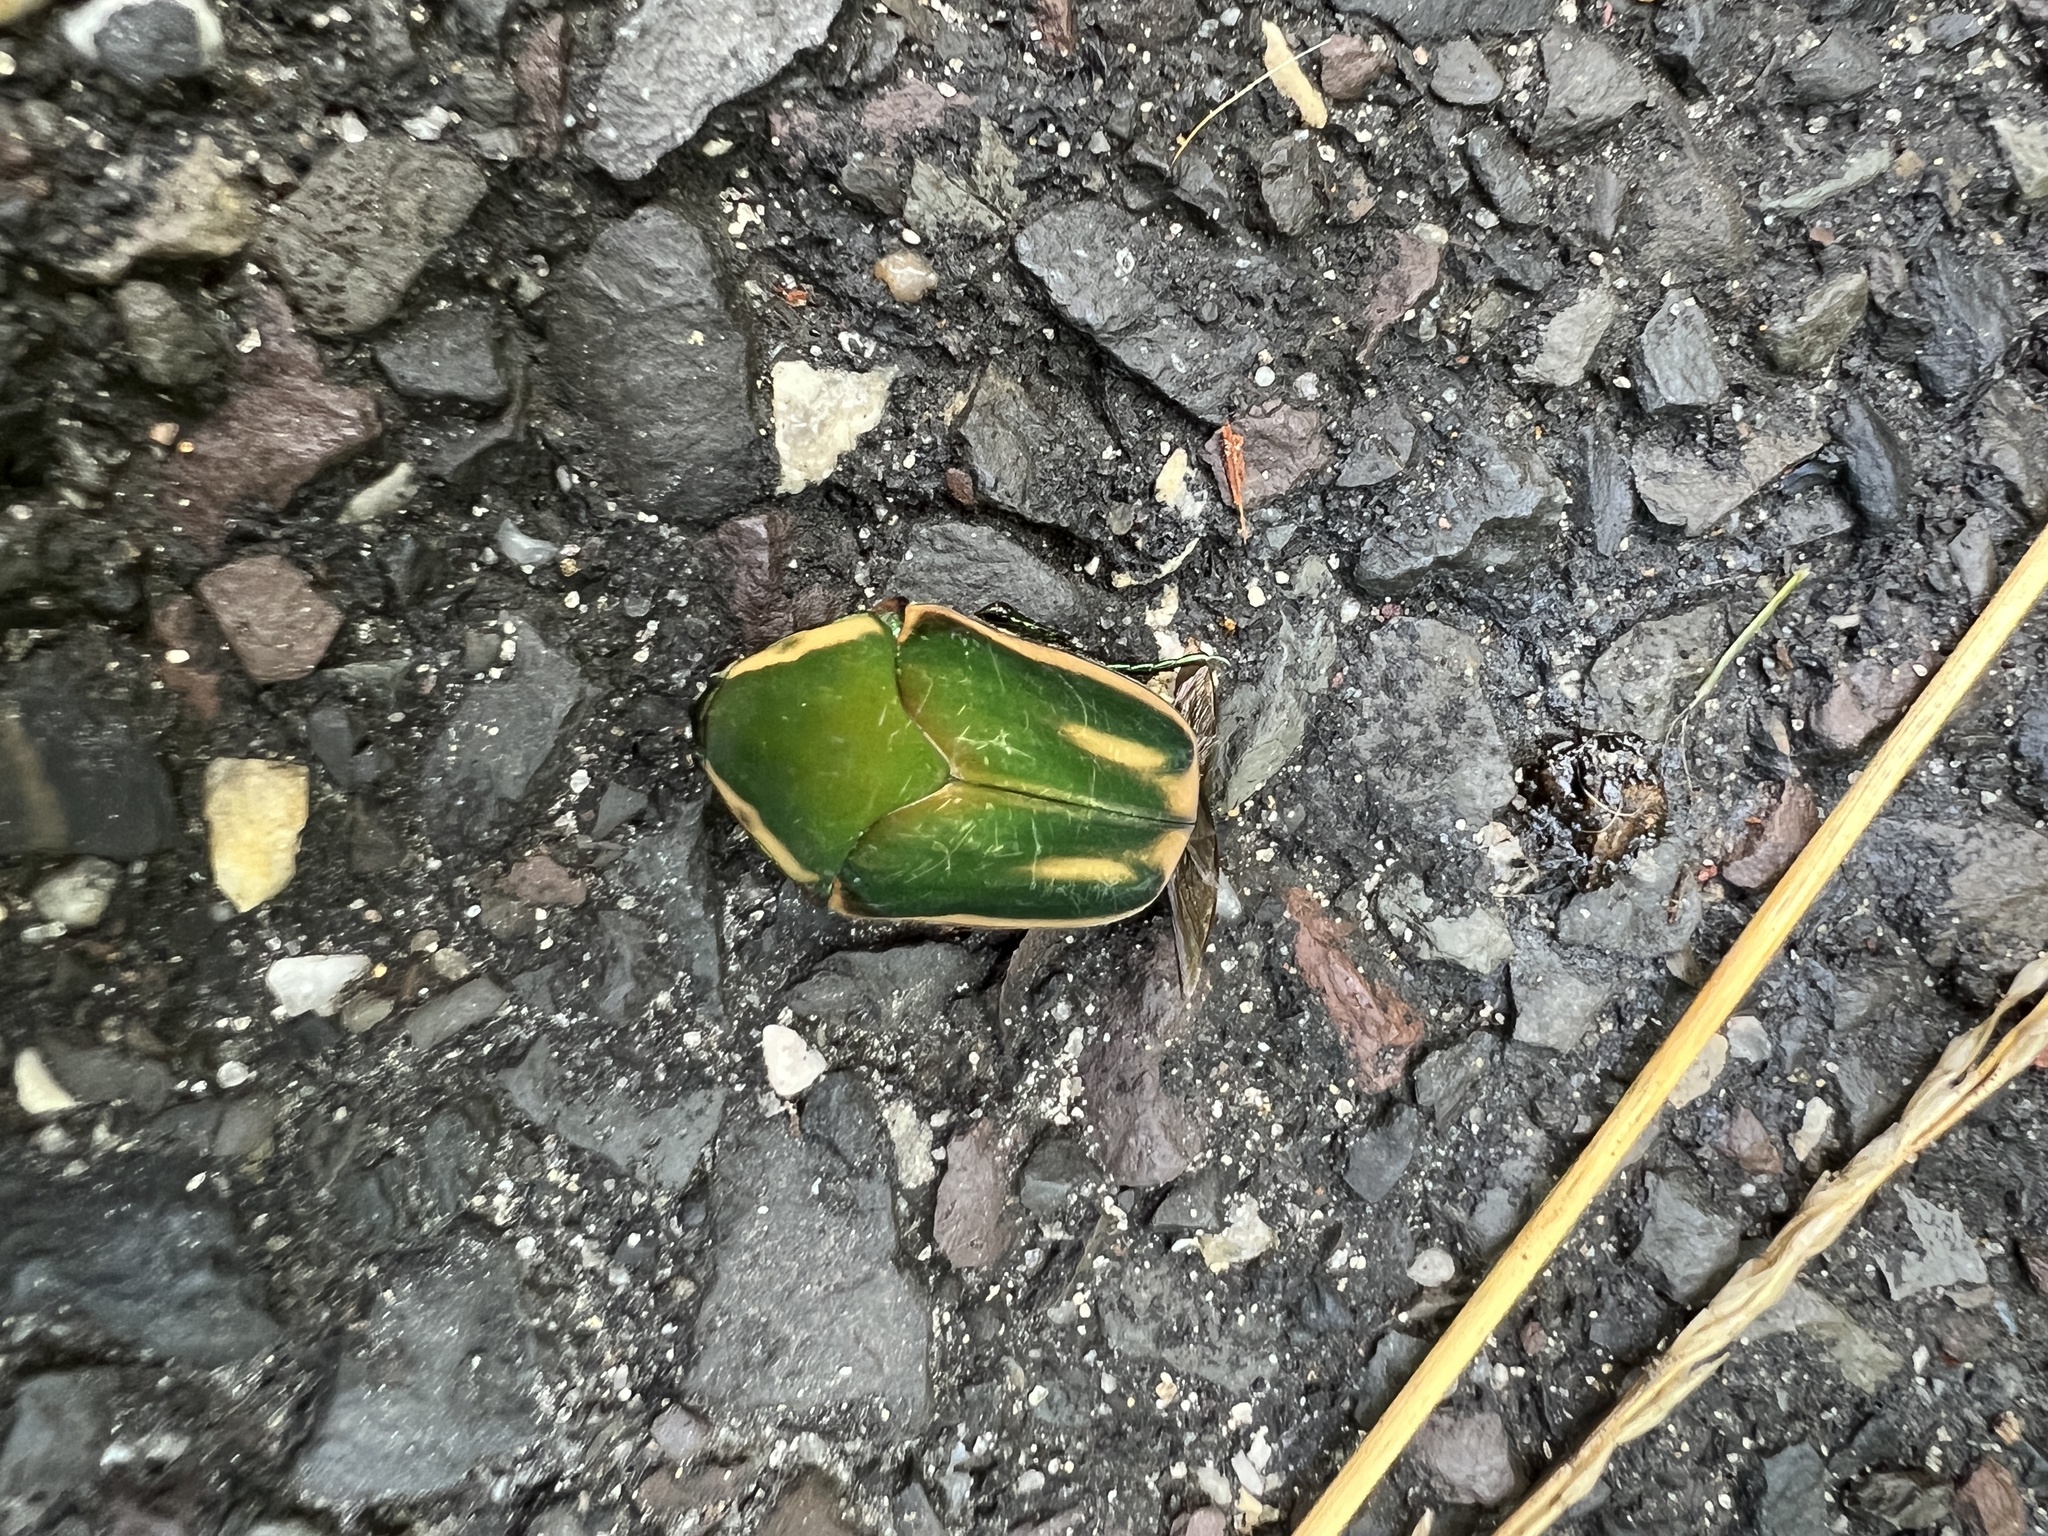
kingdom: Animalia
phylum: Arthropoda
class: Insecta
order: Coleoptera
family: Scarabaeidae
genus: Cotinis
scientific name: Cotinis nitida
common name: Common green june beetle
